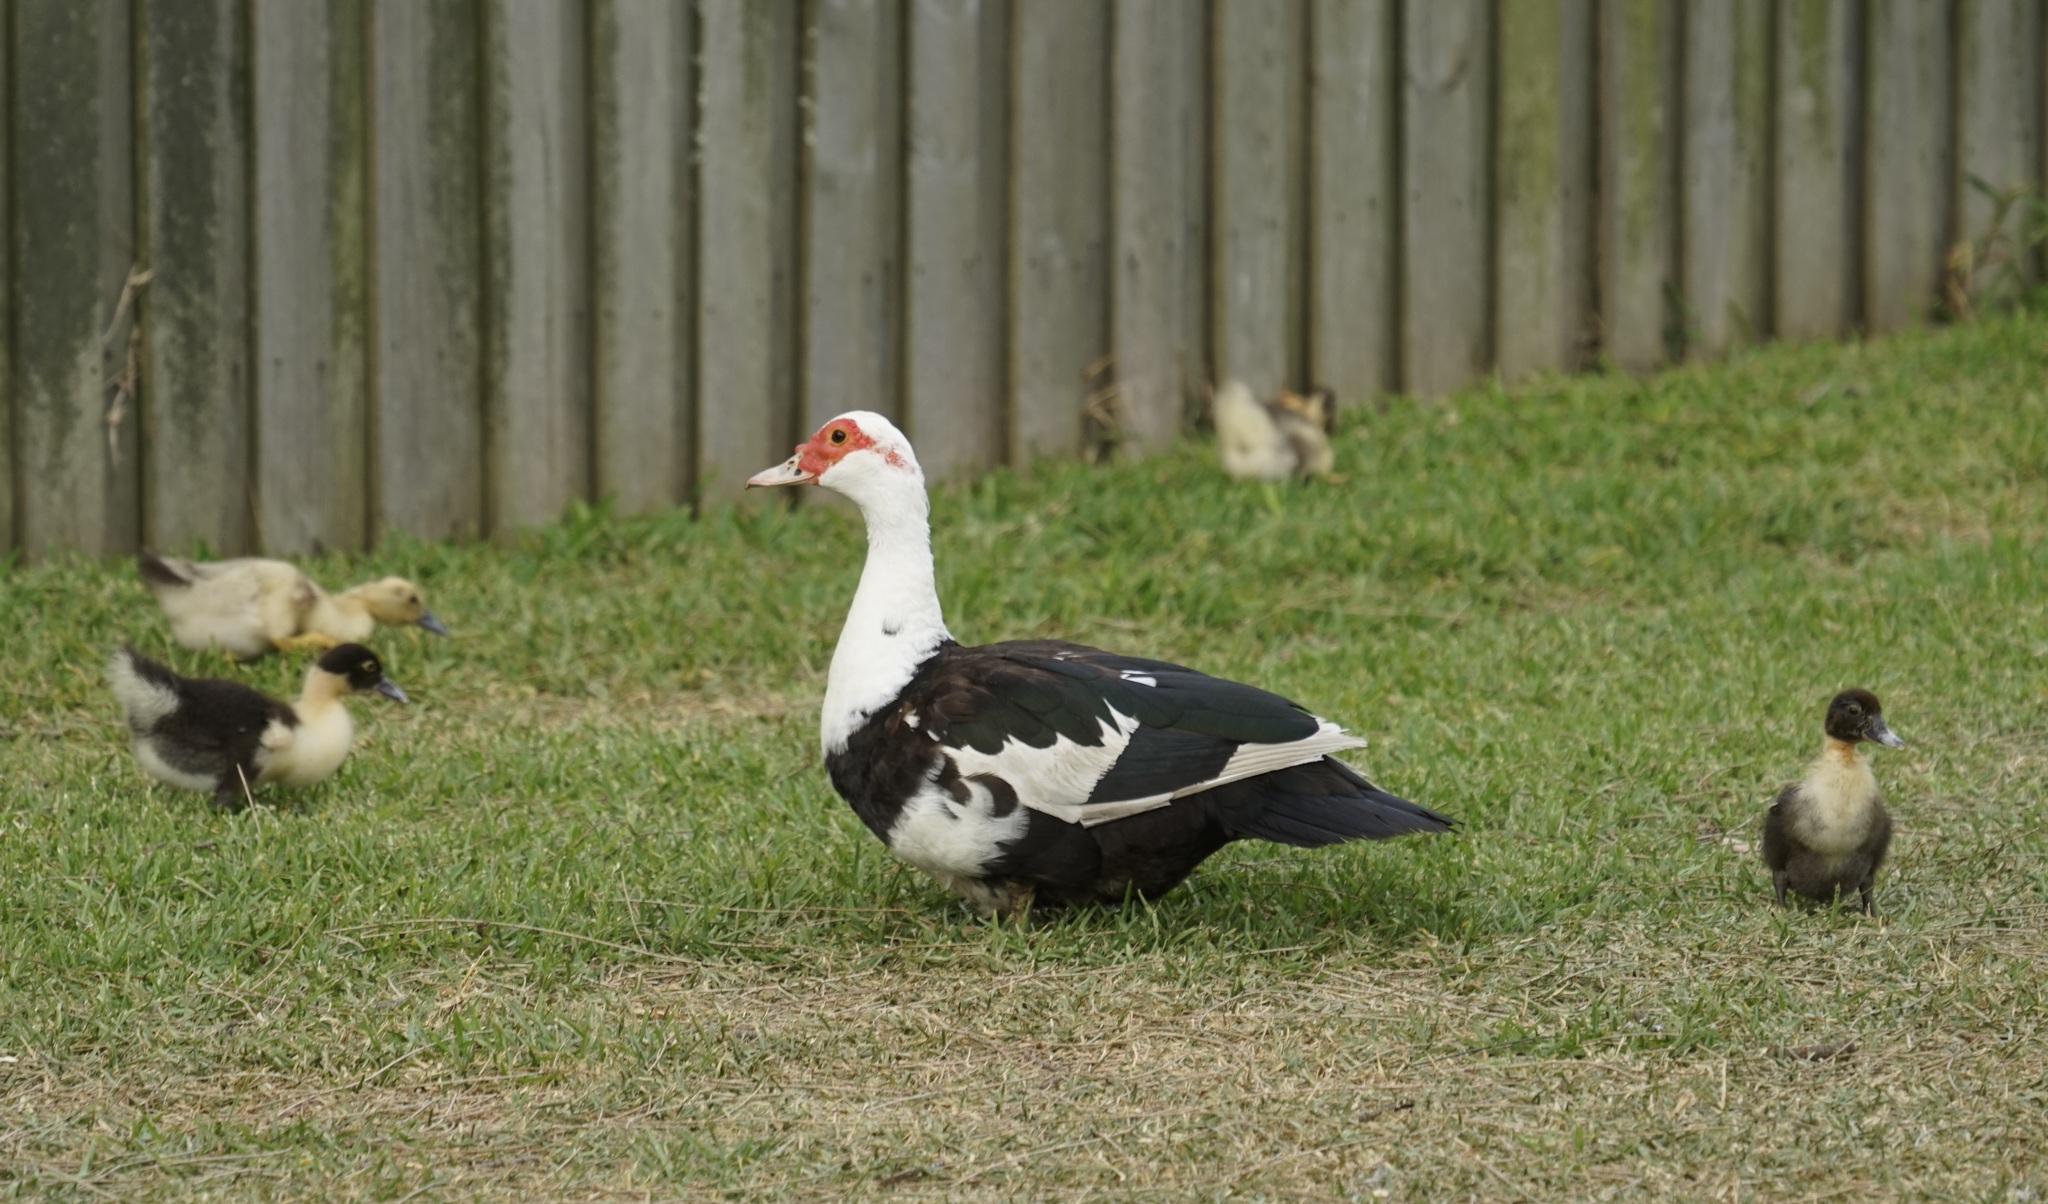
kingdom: Animalia
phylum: Chordata
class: Aves
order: Anseriformes
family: Anatidae
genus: Cairina
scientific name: Cairina moschata
